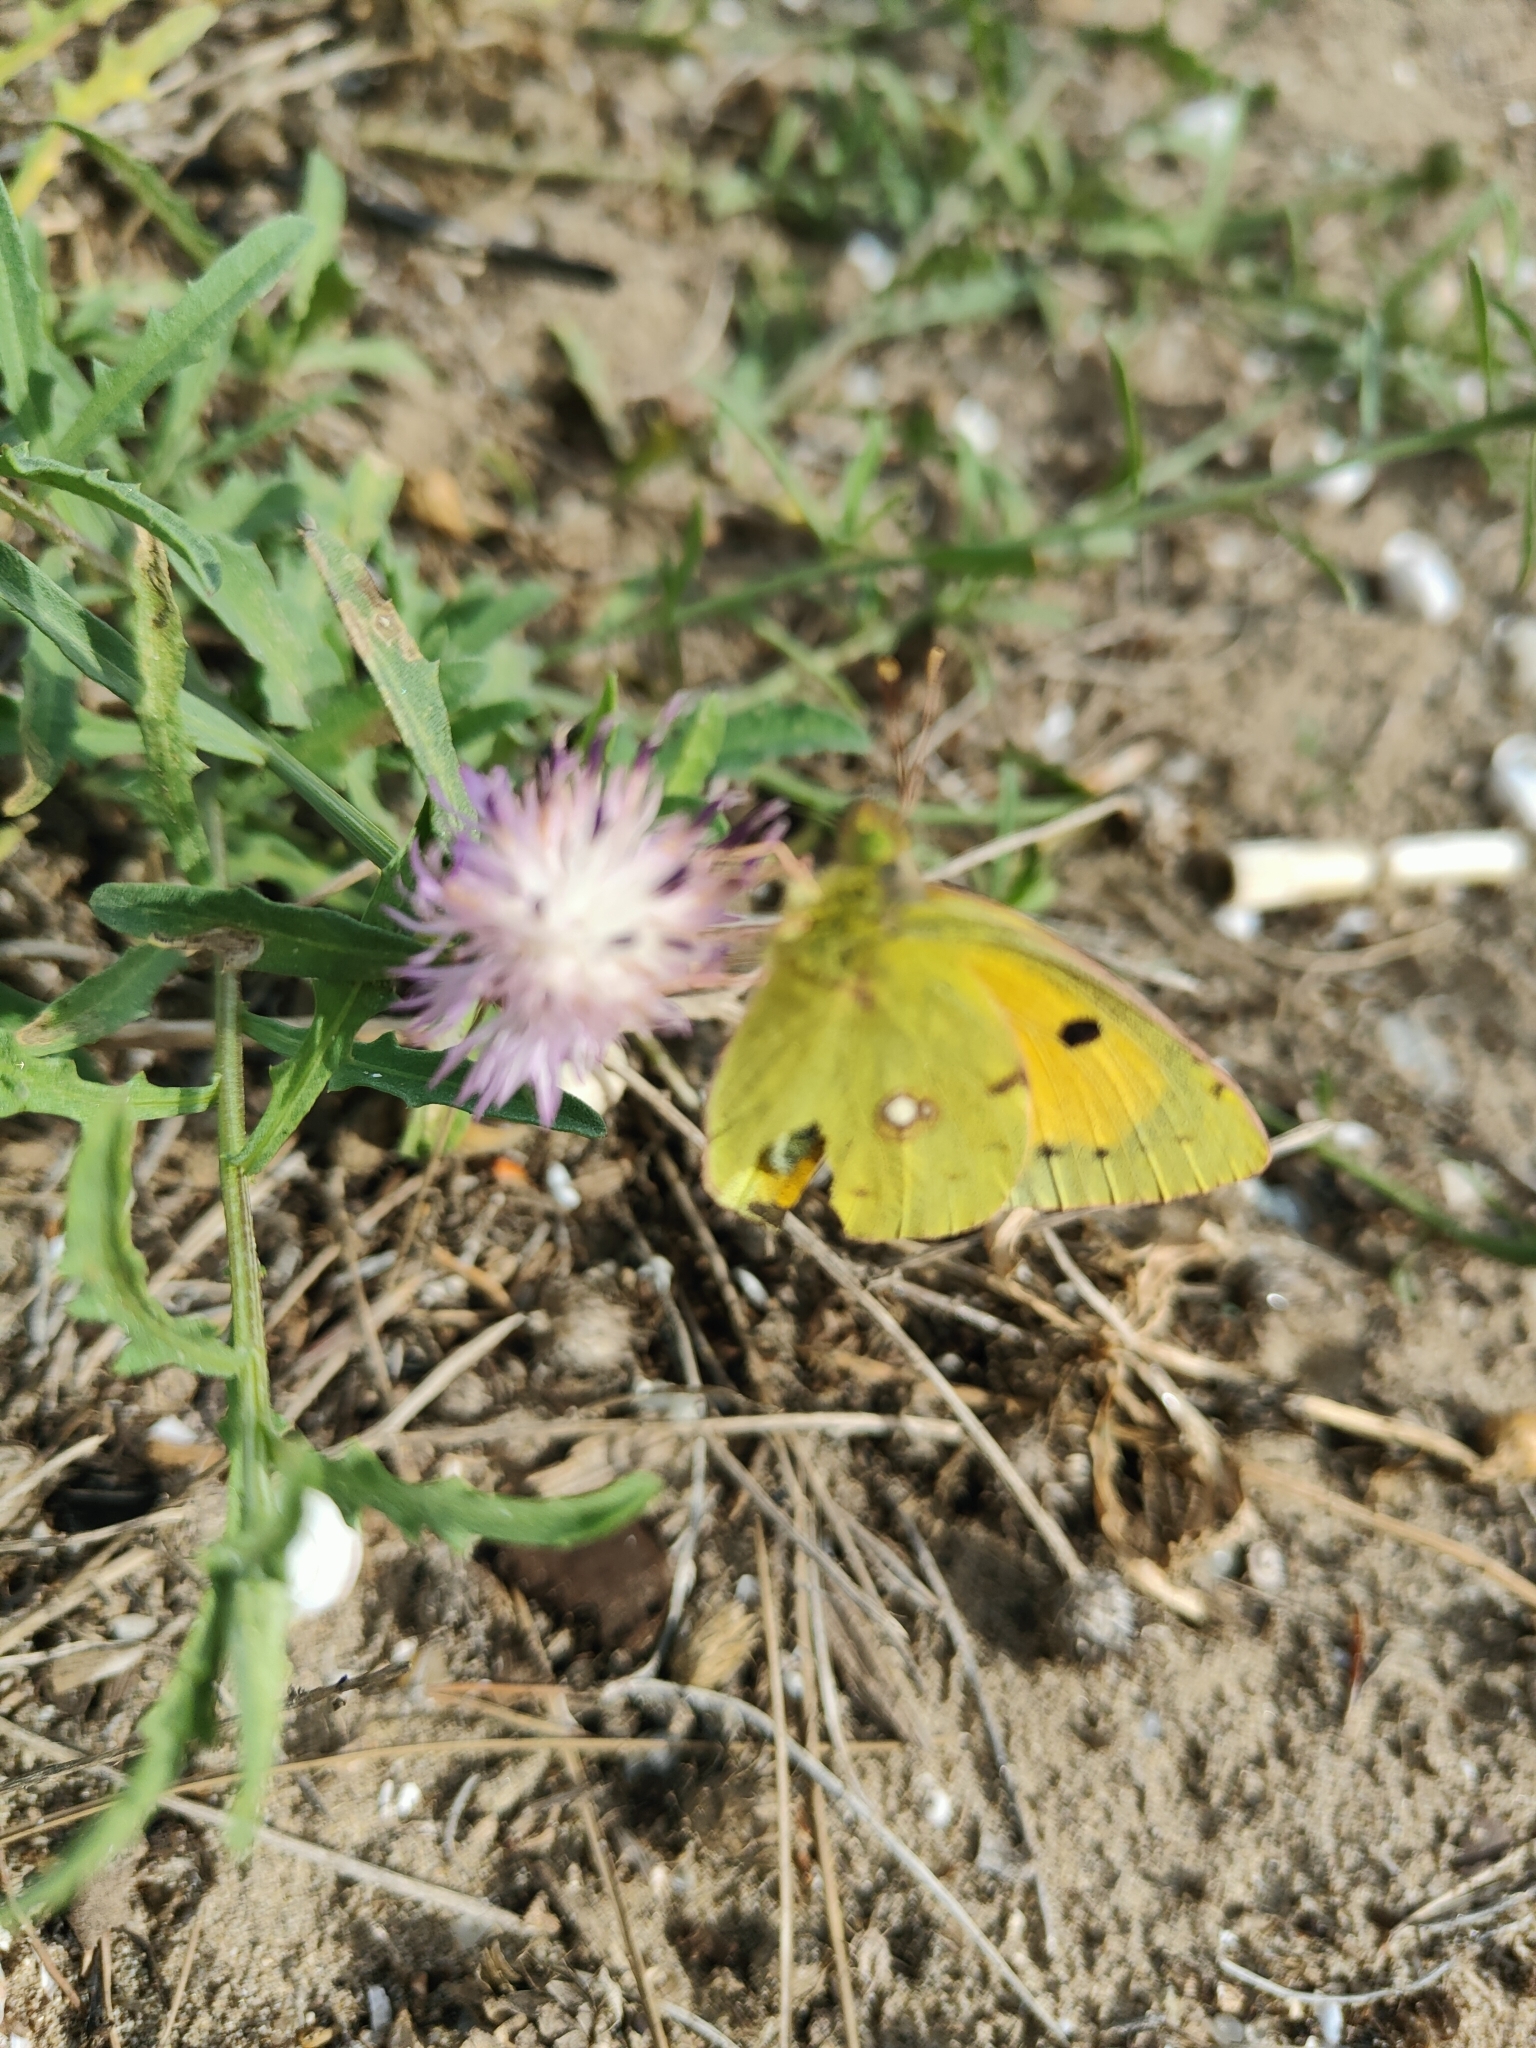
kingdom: Animalia
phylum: Arthropoda
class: Insecta
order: Lepidoptera
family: Pieridae
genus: Colias
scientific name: Colias croceus
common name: Clouded yellow
